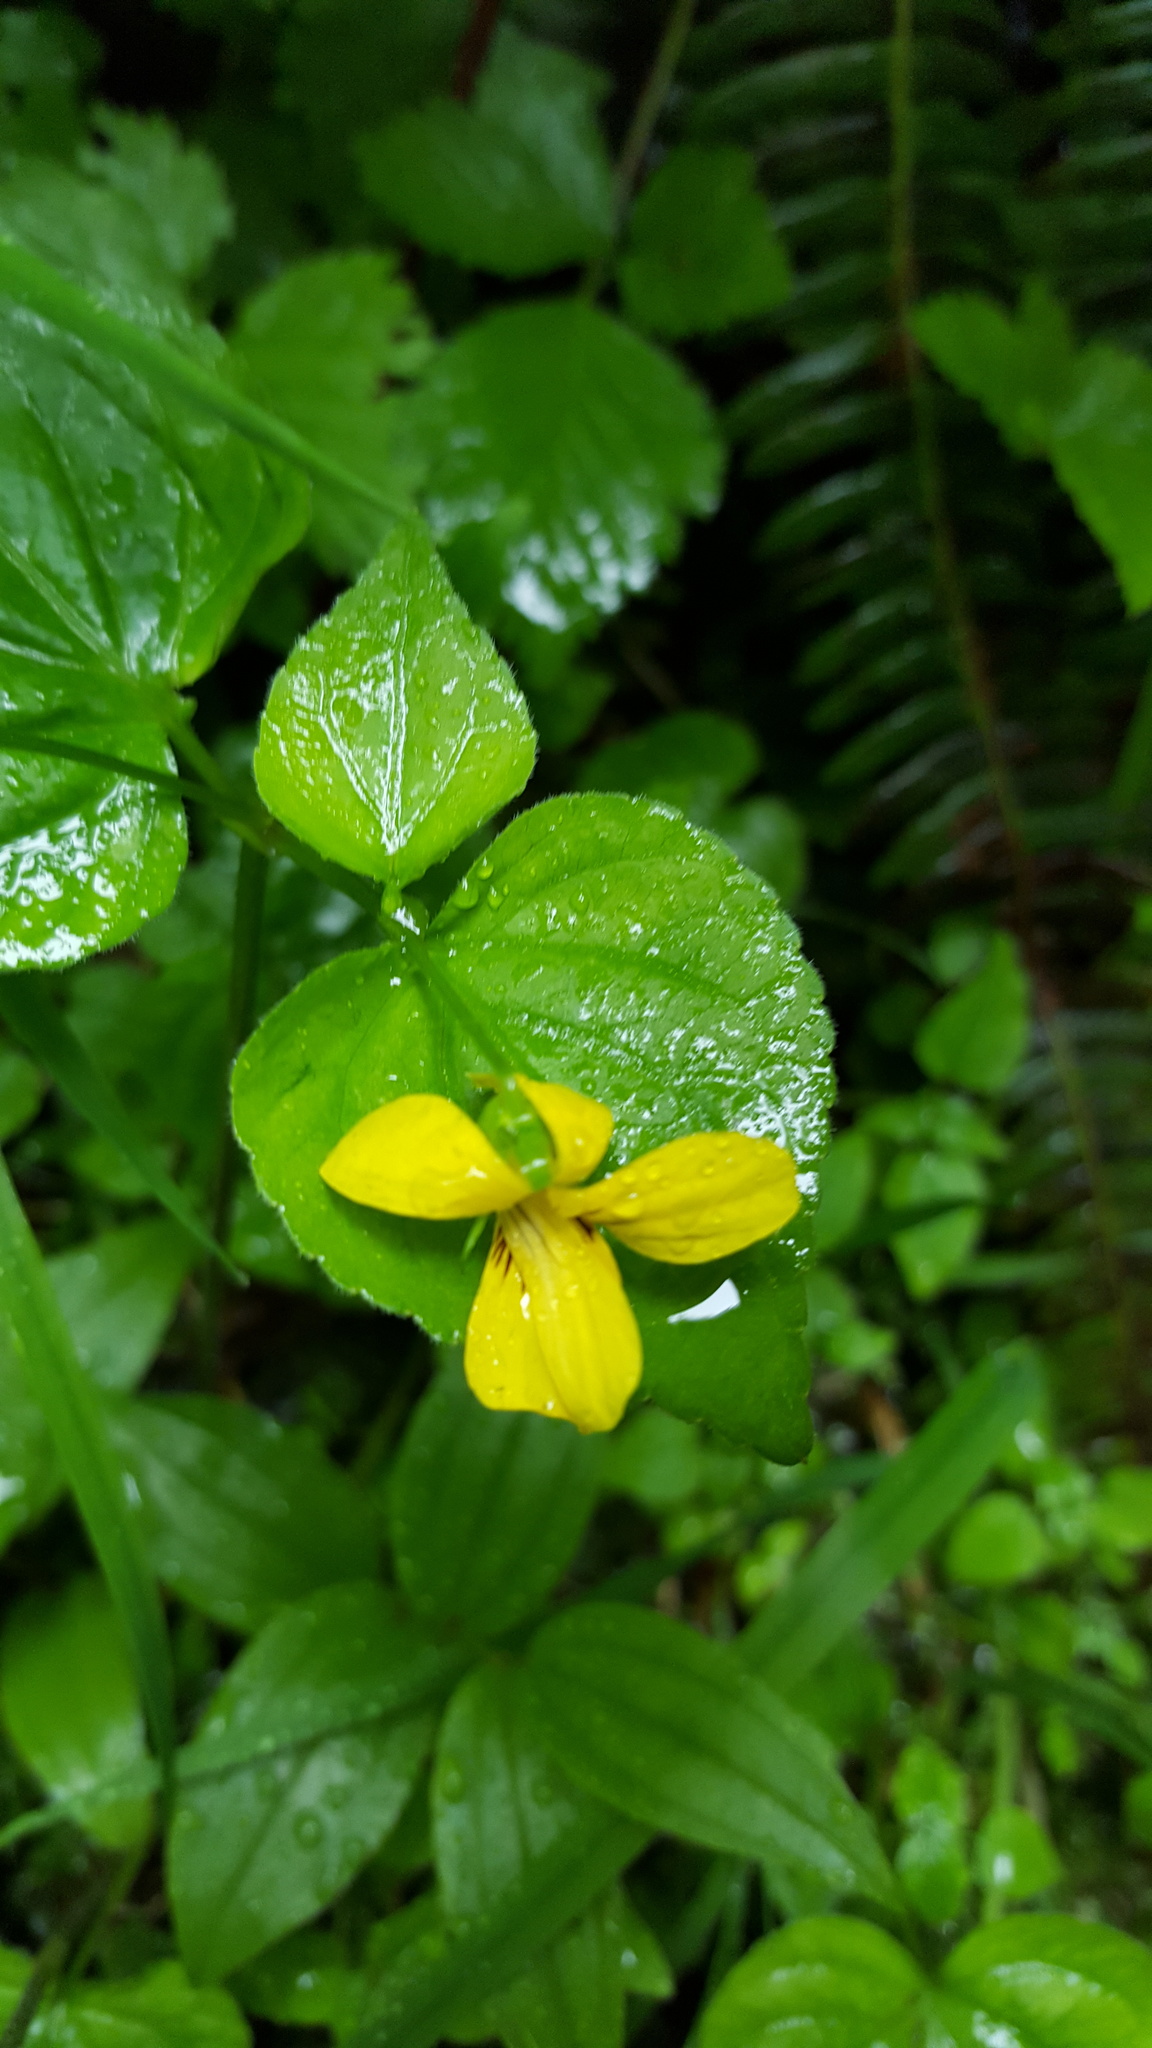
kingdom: Plantae
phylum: Tracheophyta
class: Magnoliopsida
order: Malpighiales
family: Violaceae
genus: Viola
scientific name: Viola glabella
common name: Stream violet
